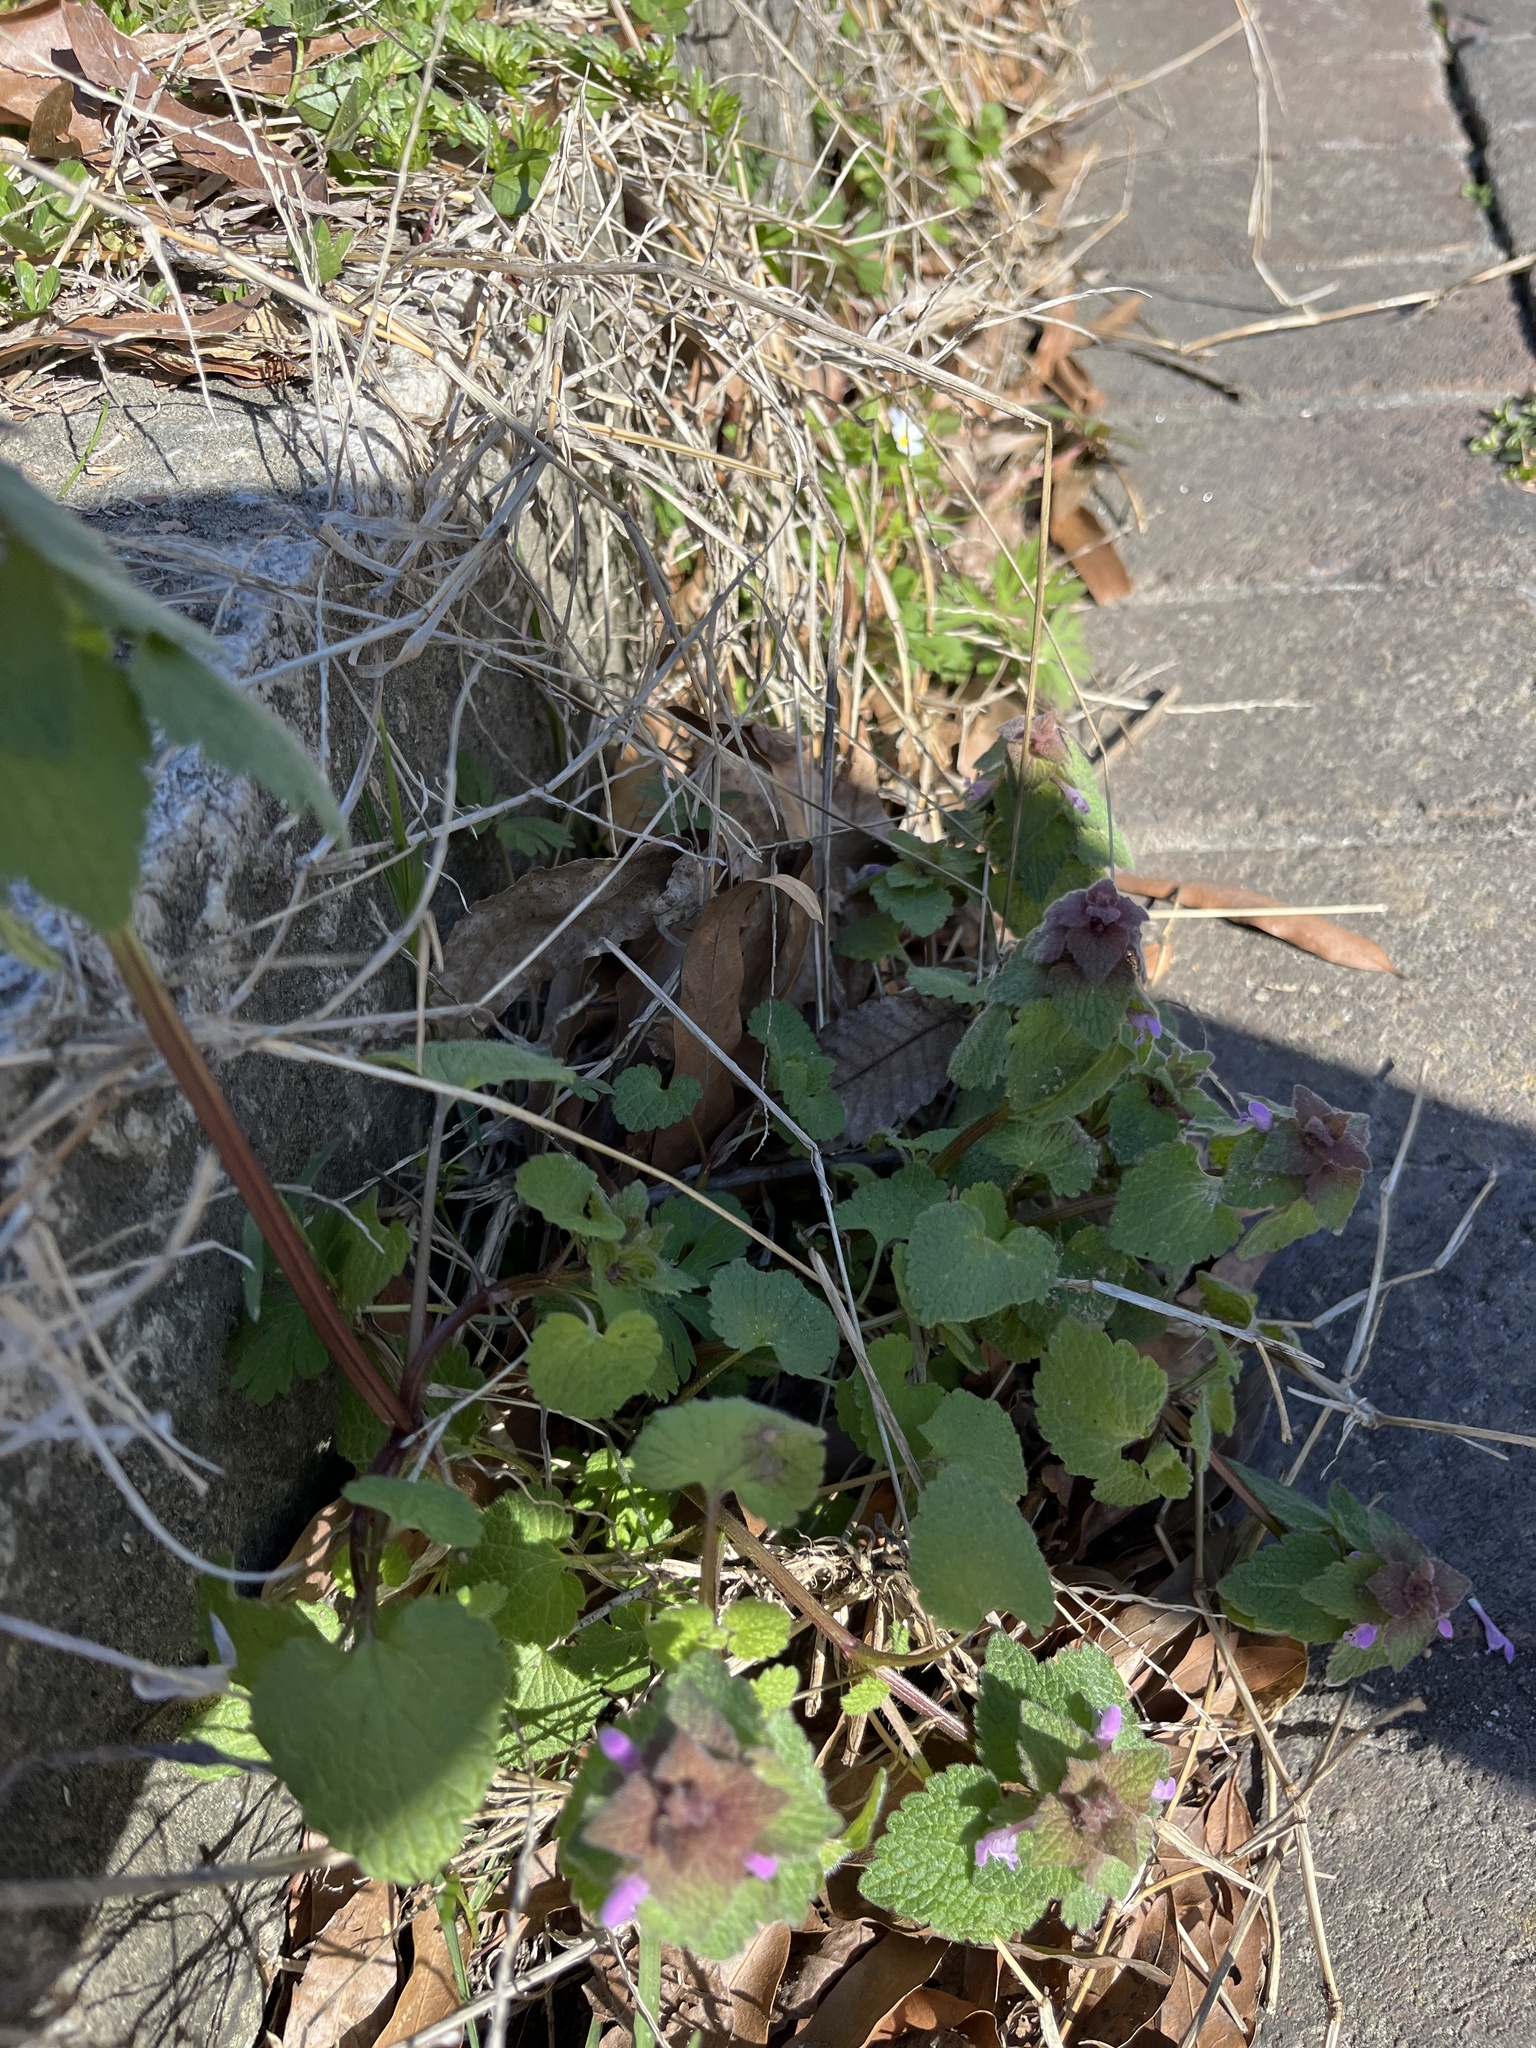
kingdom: Plantae
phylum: Tracheophyta
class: Magnoliopsida
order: Lamiales
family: Lamiaceae
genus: Lamium
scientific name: Lamium purpureum
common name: Red dead-nettle
